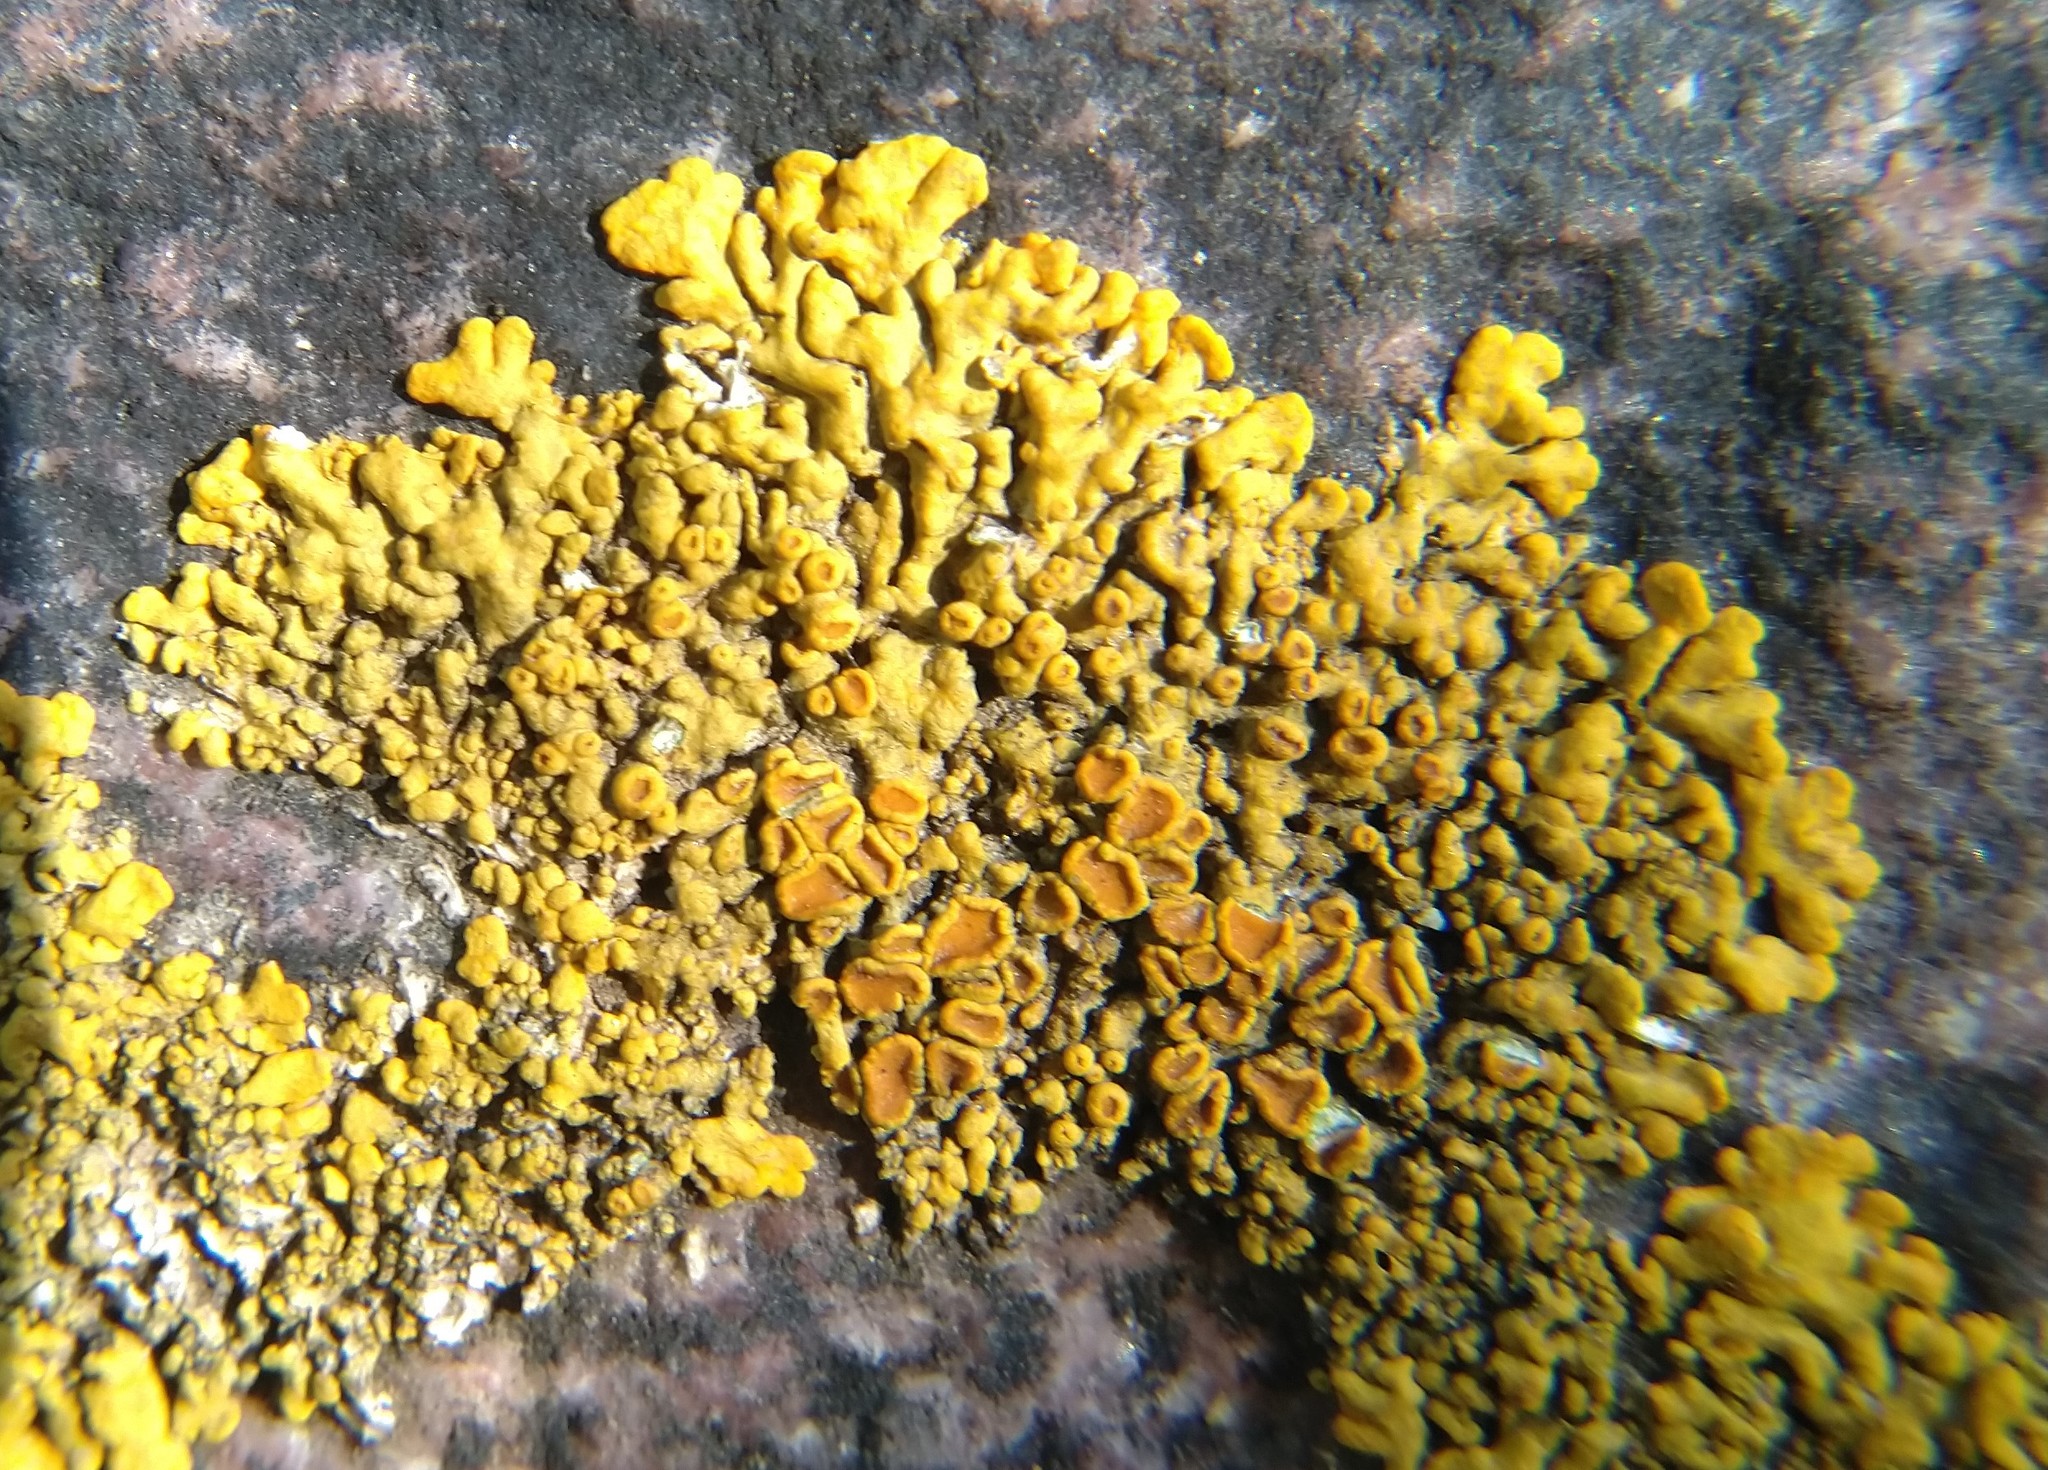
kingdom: Fungi
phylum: Ascomycota
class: Lecanoromycetes
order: Teloschistales
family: Teloschistaceae
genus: Xanthoria
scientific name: Xanthoria elegans
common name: Elegant sunburst lichen
